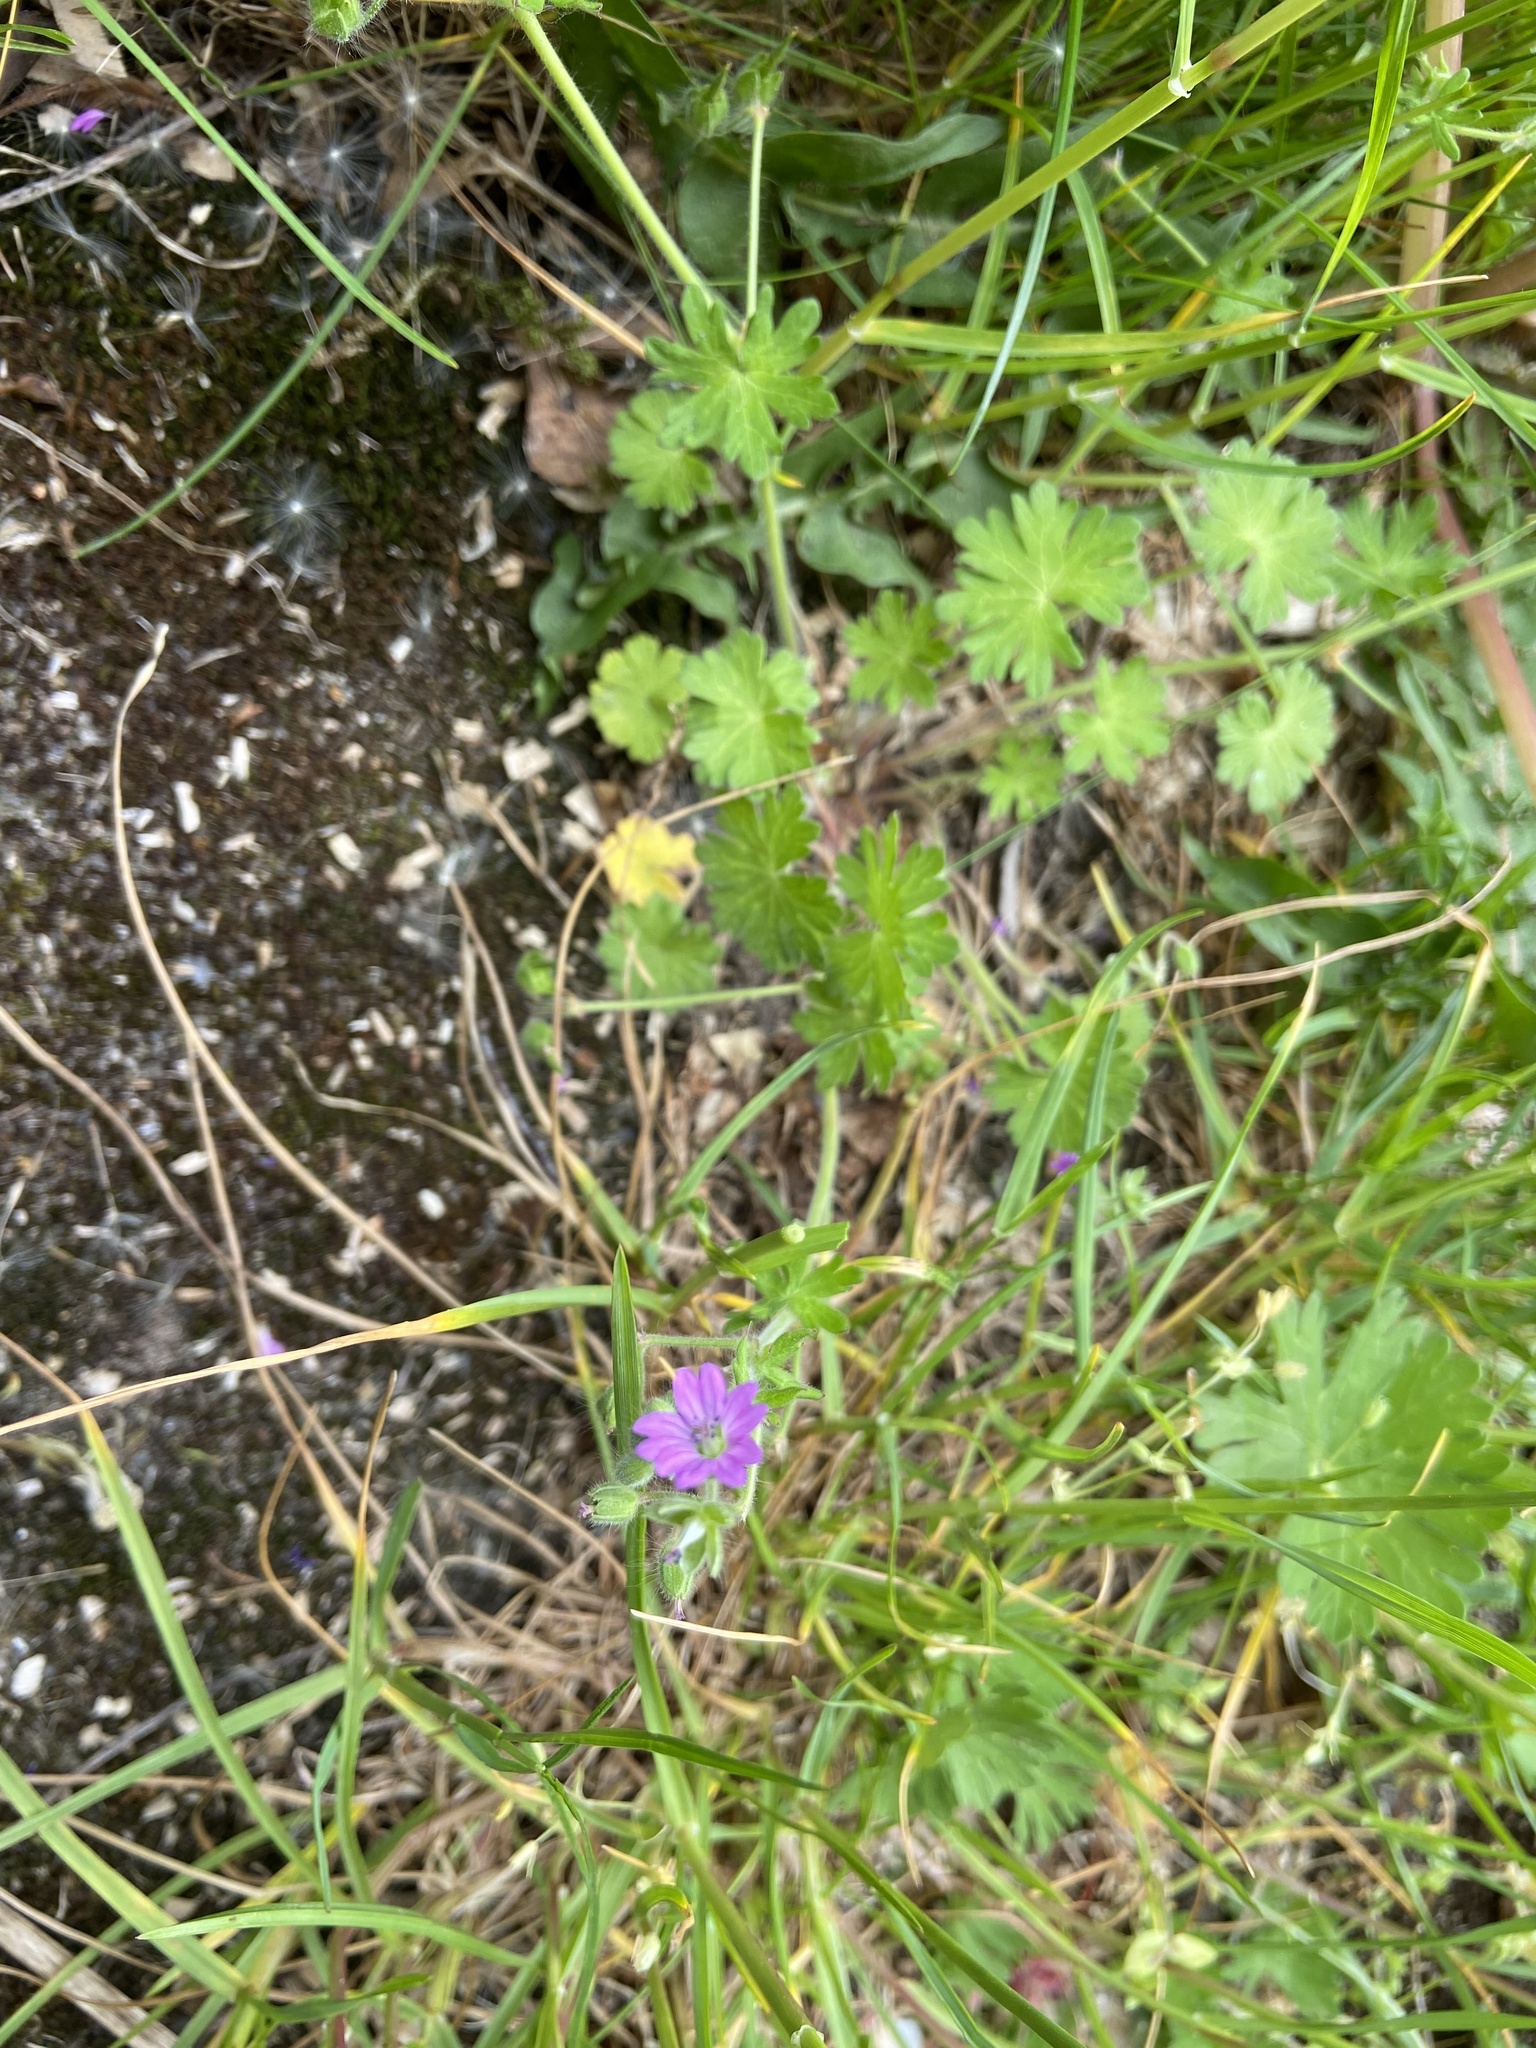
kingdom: Plantae
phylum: Tracheophyta
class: Magnoliopsida
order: Geraniales
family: Geraniaceae
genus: Geranium
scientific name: Geranium molle
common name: Dove's-foot crane's-bill
